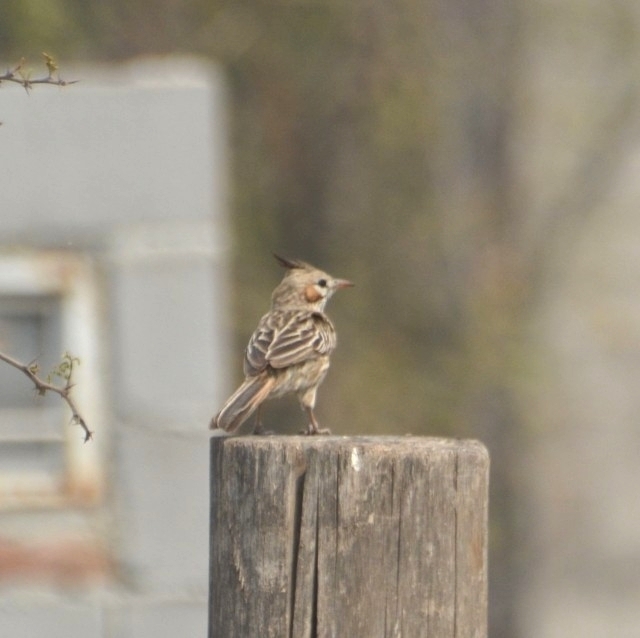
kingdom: Animalia
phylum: Chordata
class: Aves
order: Passeriformes
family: Furnariidae
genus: Coryphistera
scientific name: Coryphistera alaudina
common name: Lark-like brushrunner
